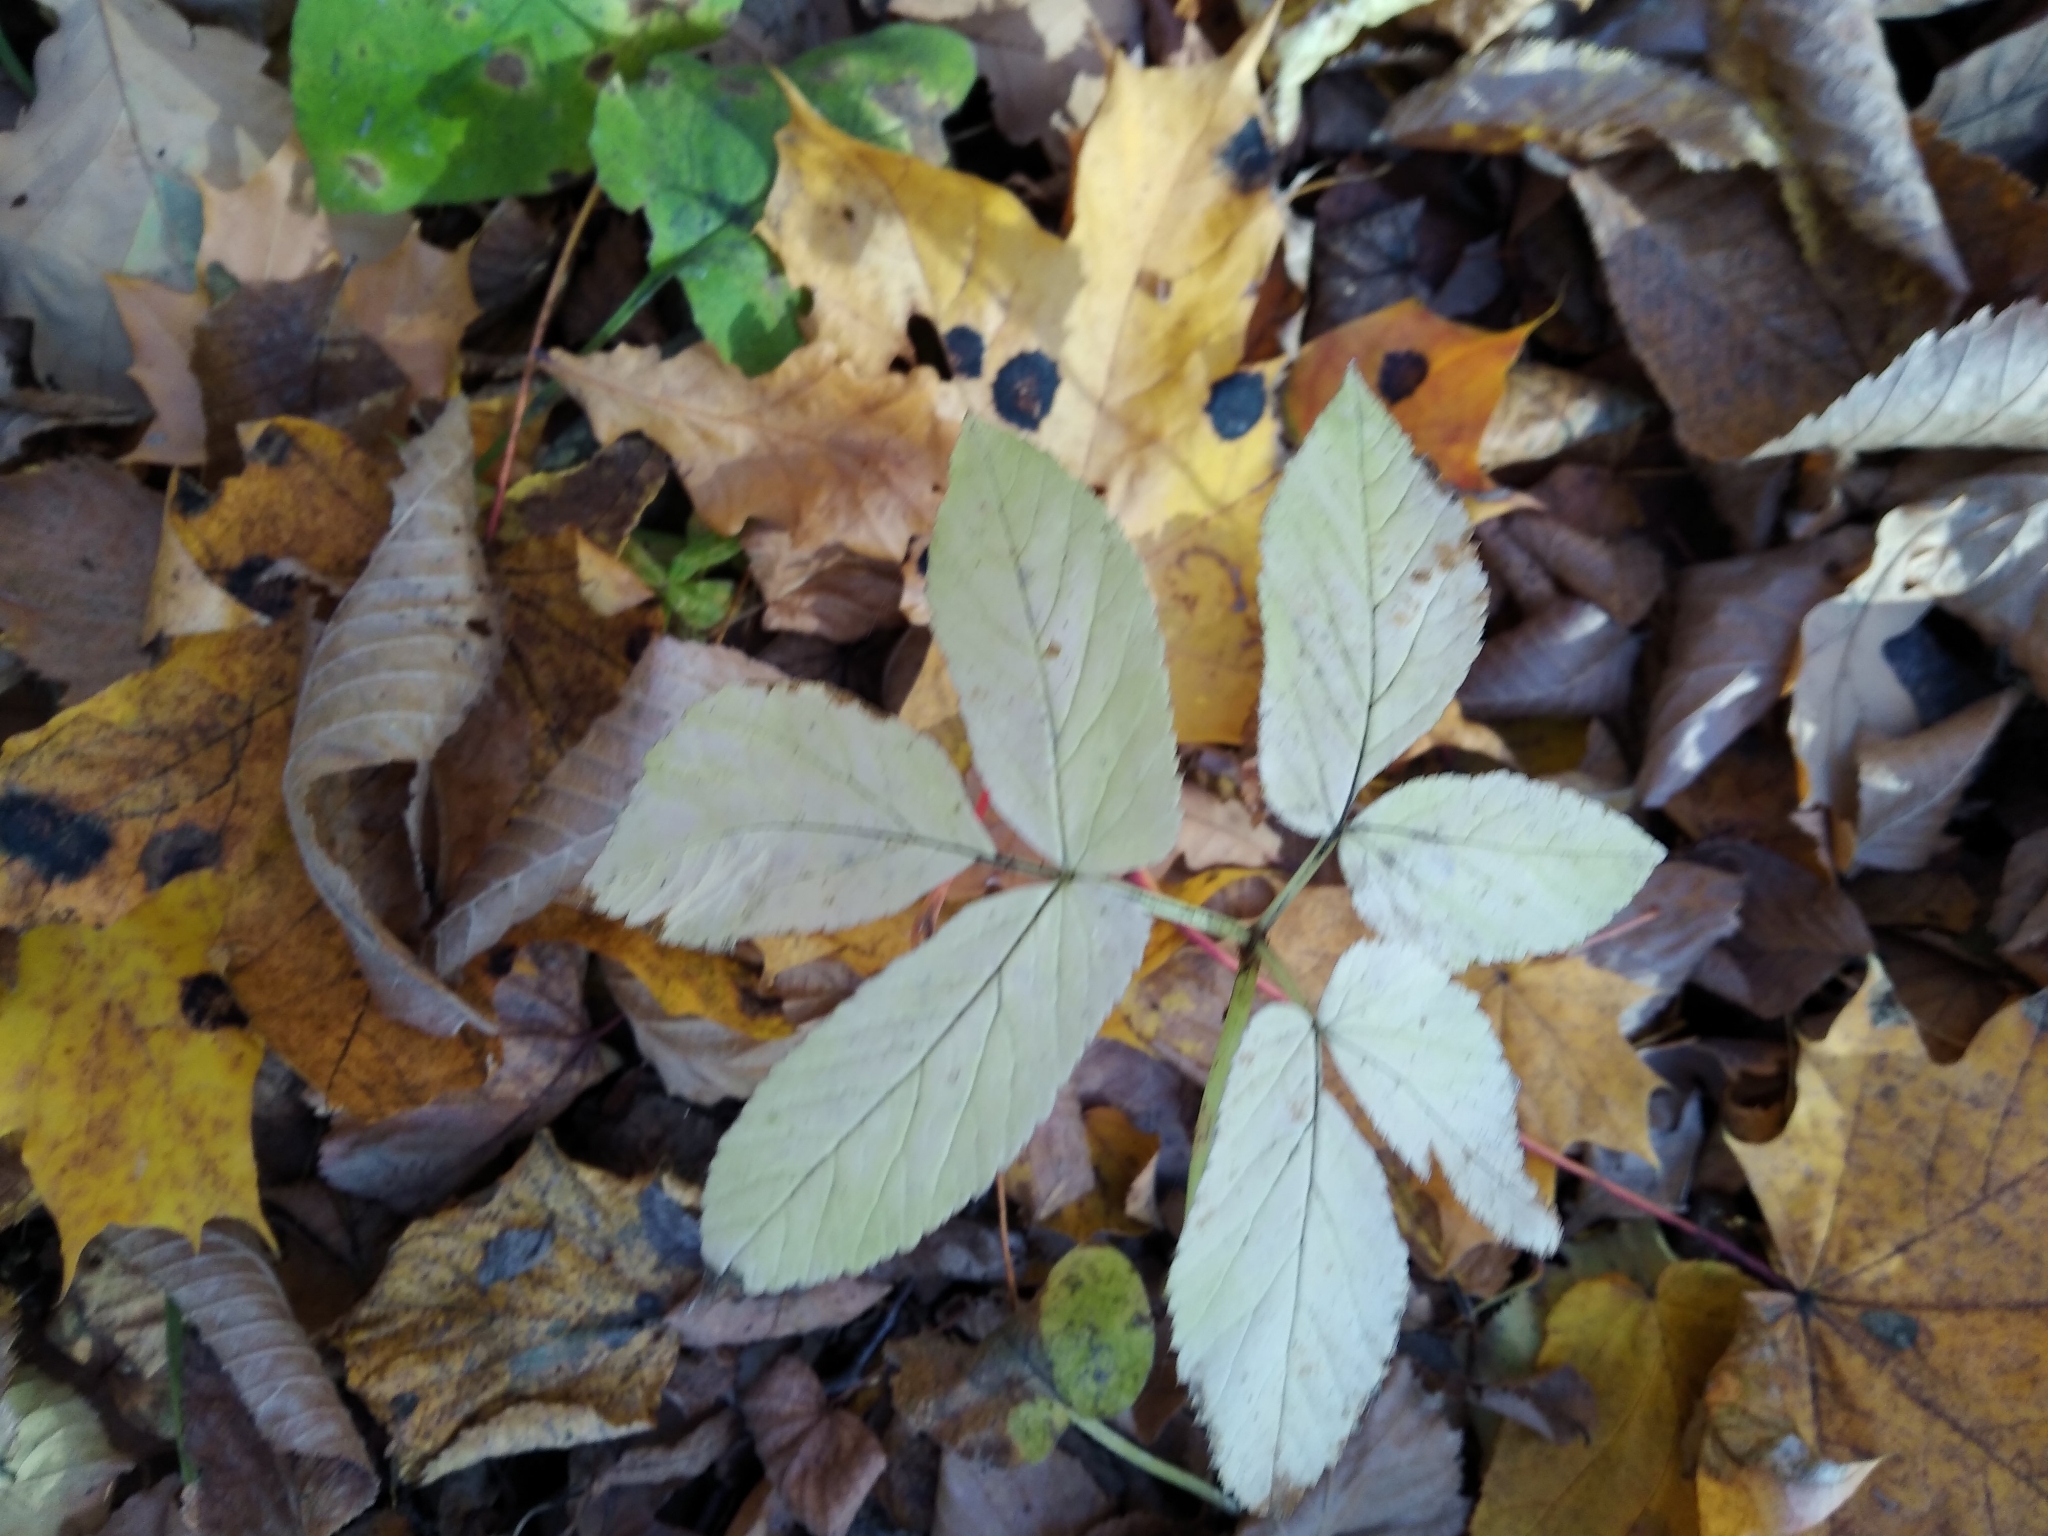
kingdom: Plantae
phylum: Tracheophyta
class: Magnoliopsida
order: Apiales
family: Apiaceae
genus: Aegopodium
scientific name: Aegopodium podagraria
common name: Ground-elder
